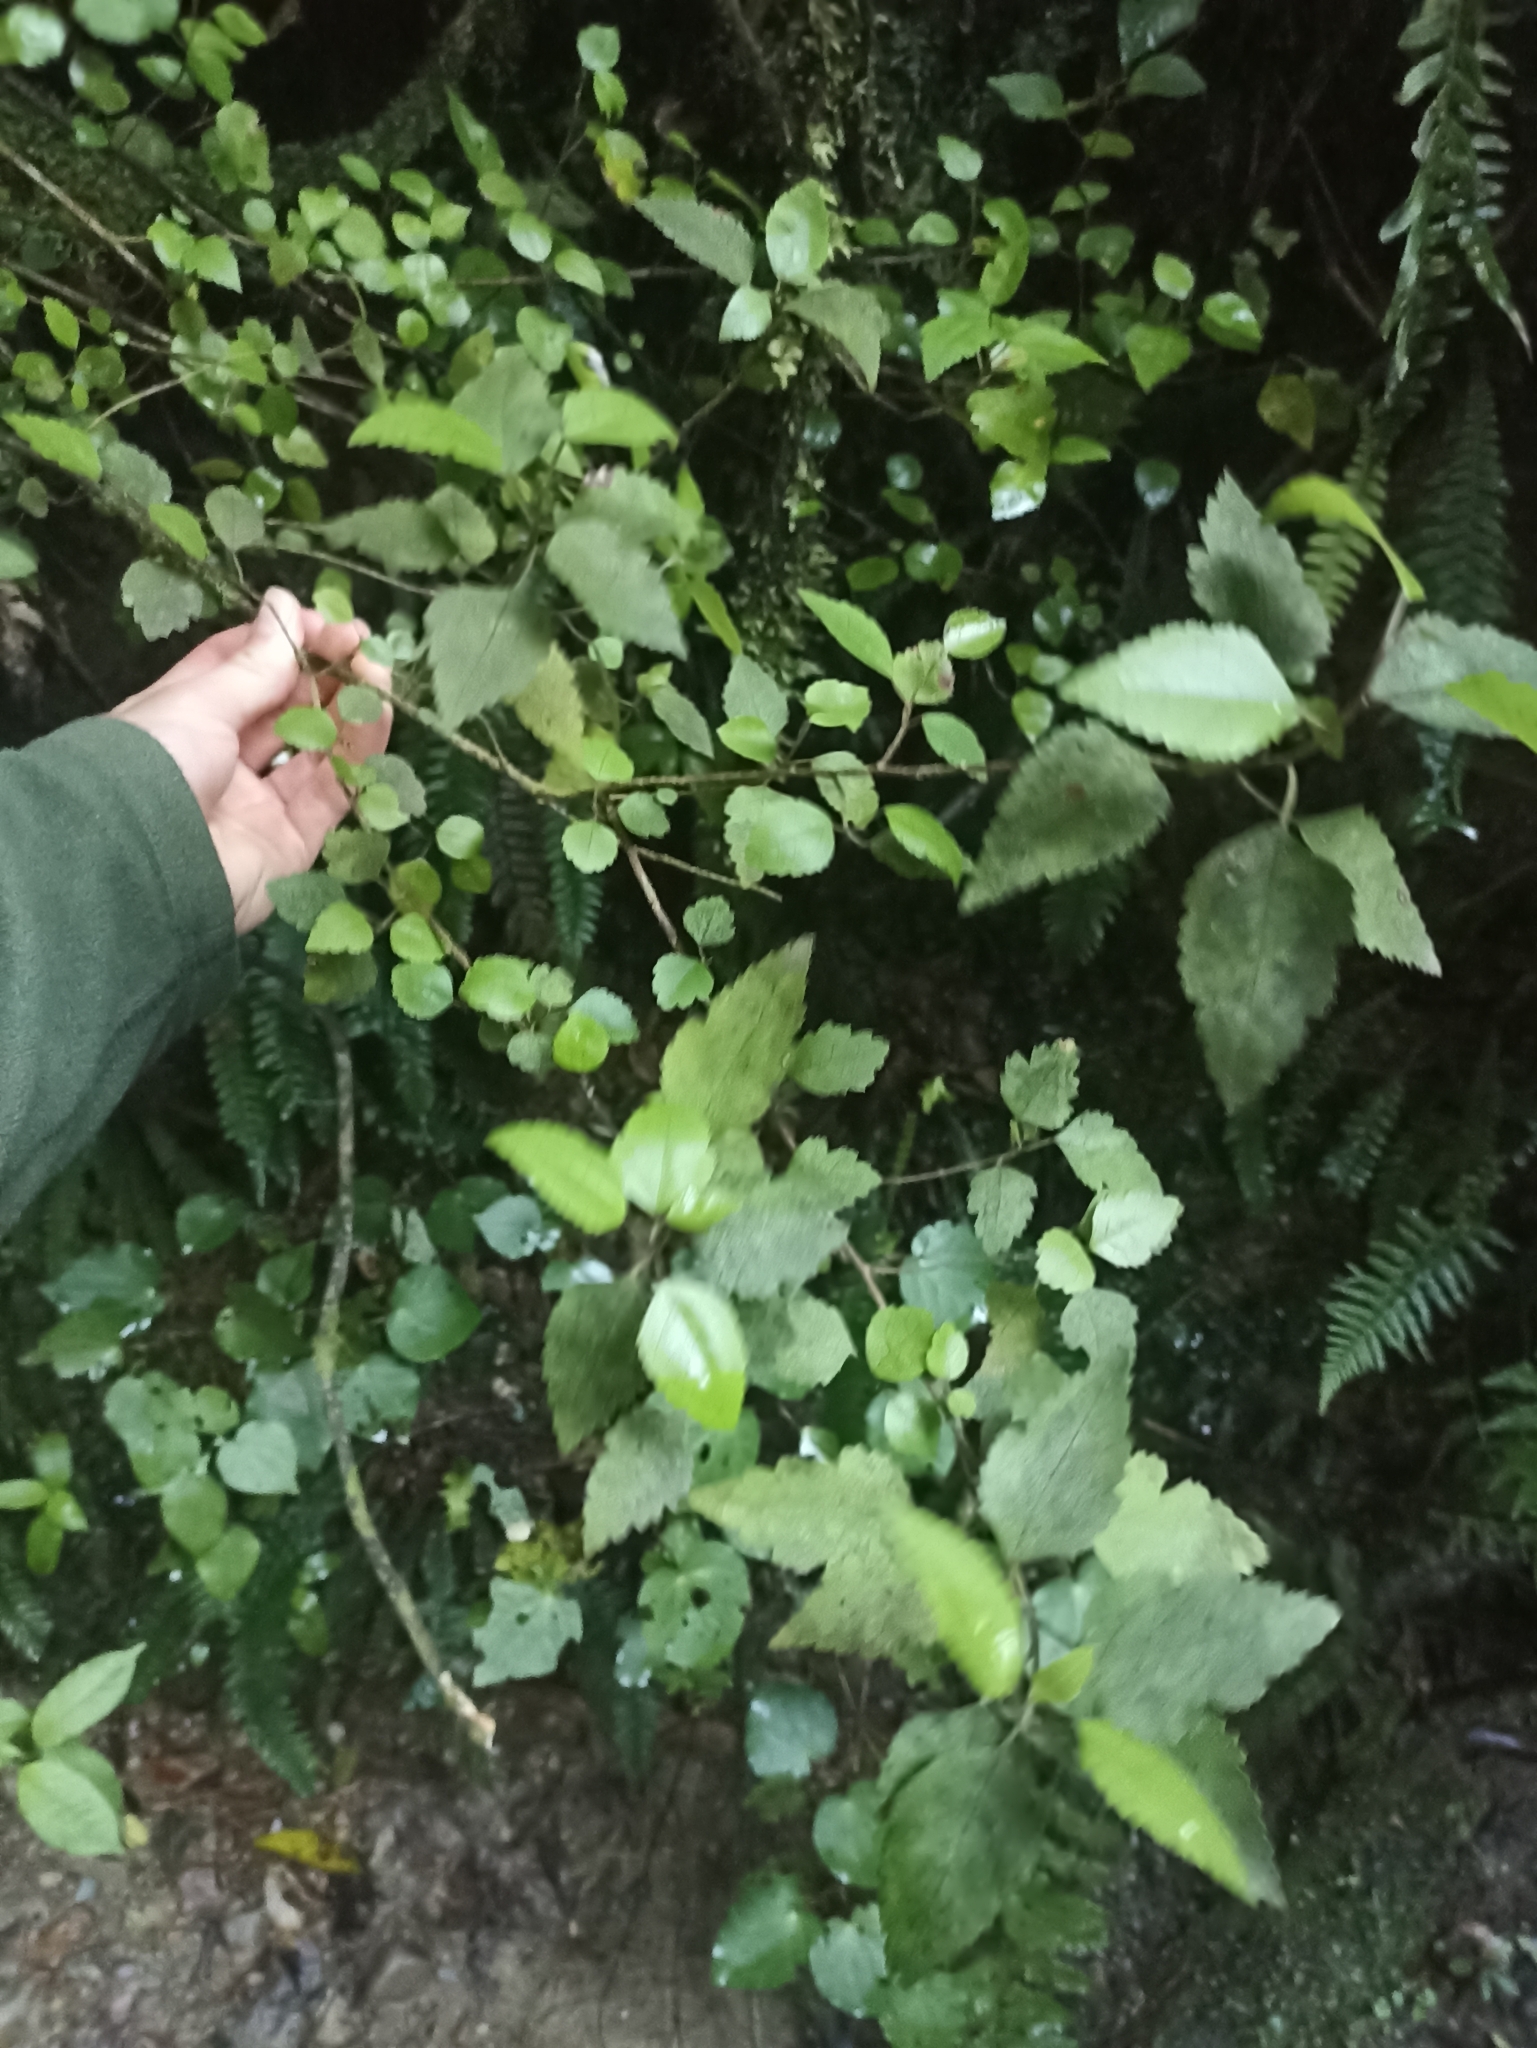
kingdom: Plantae
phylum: Tracheophyta
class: Magnoliopsida
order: Malvales
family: Malvaceae
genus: Hoheria
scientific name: Hoheria sexstylosa
